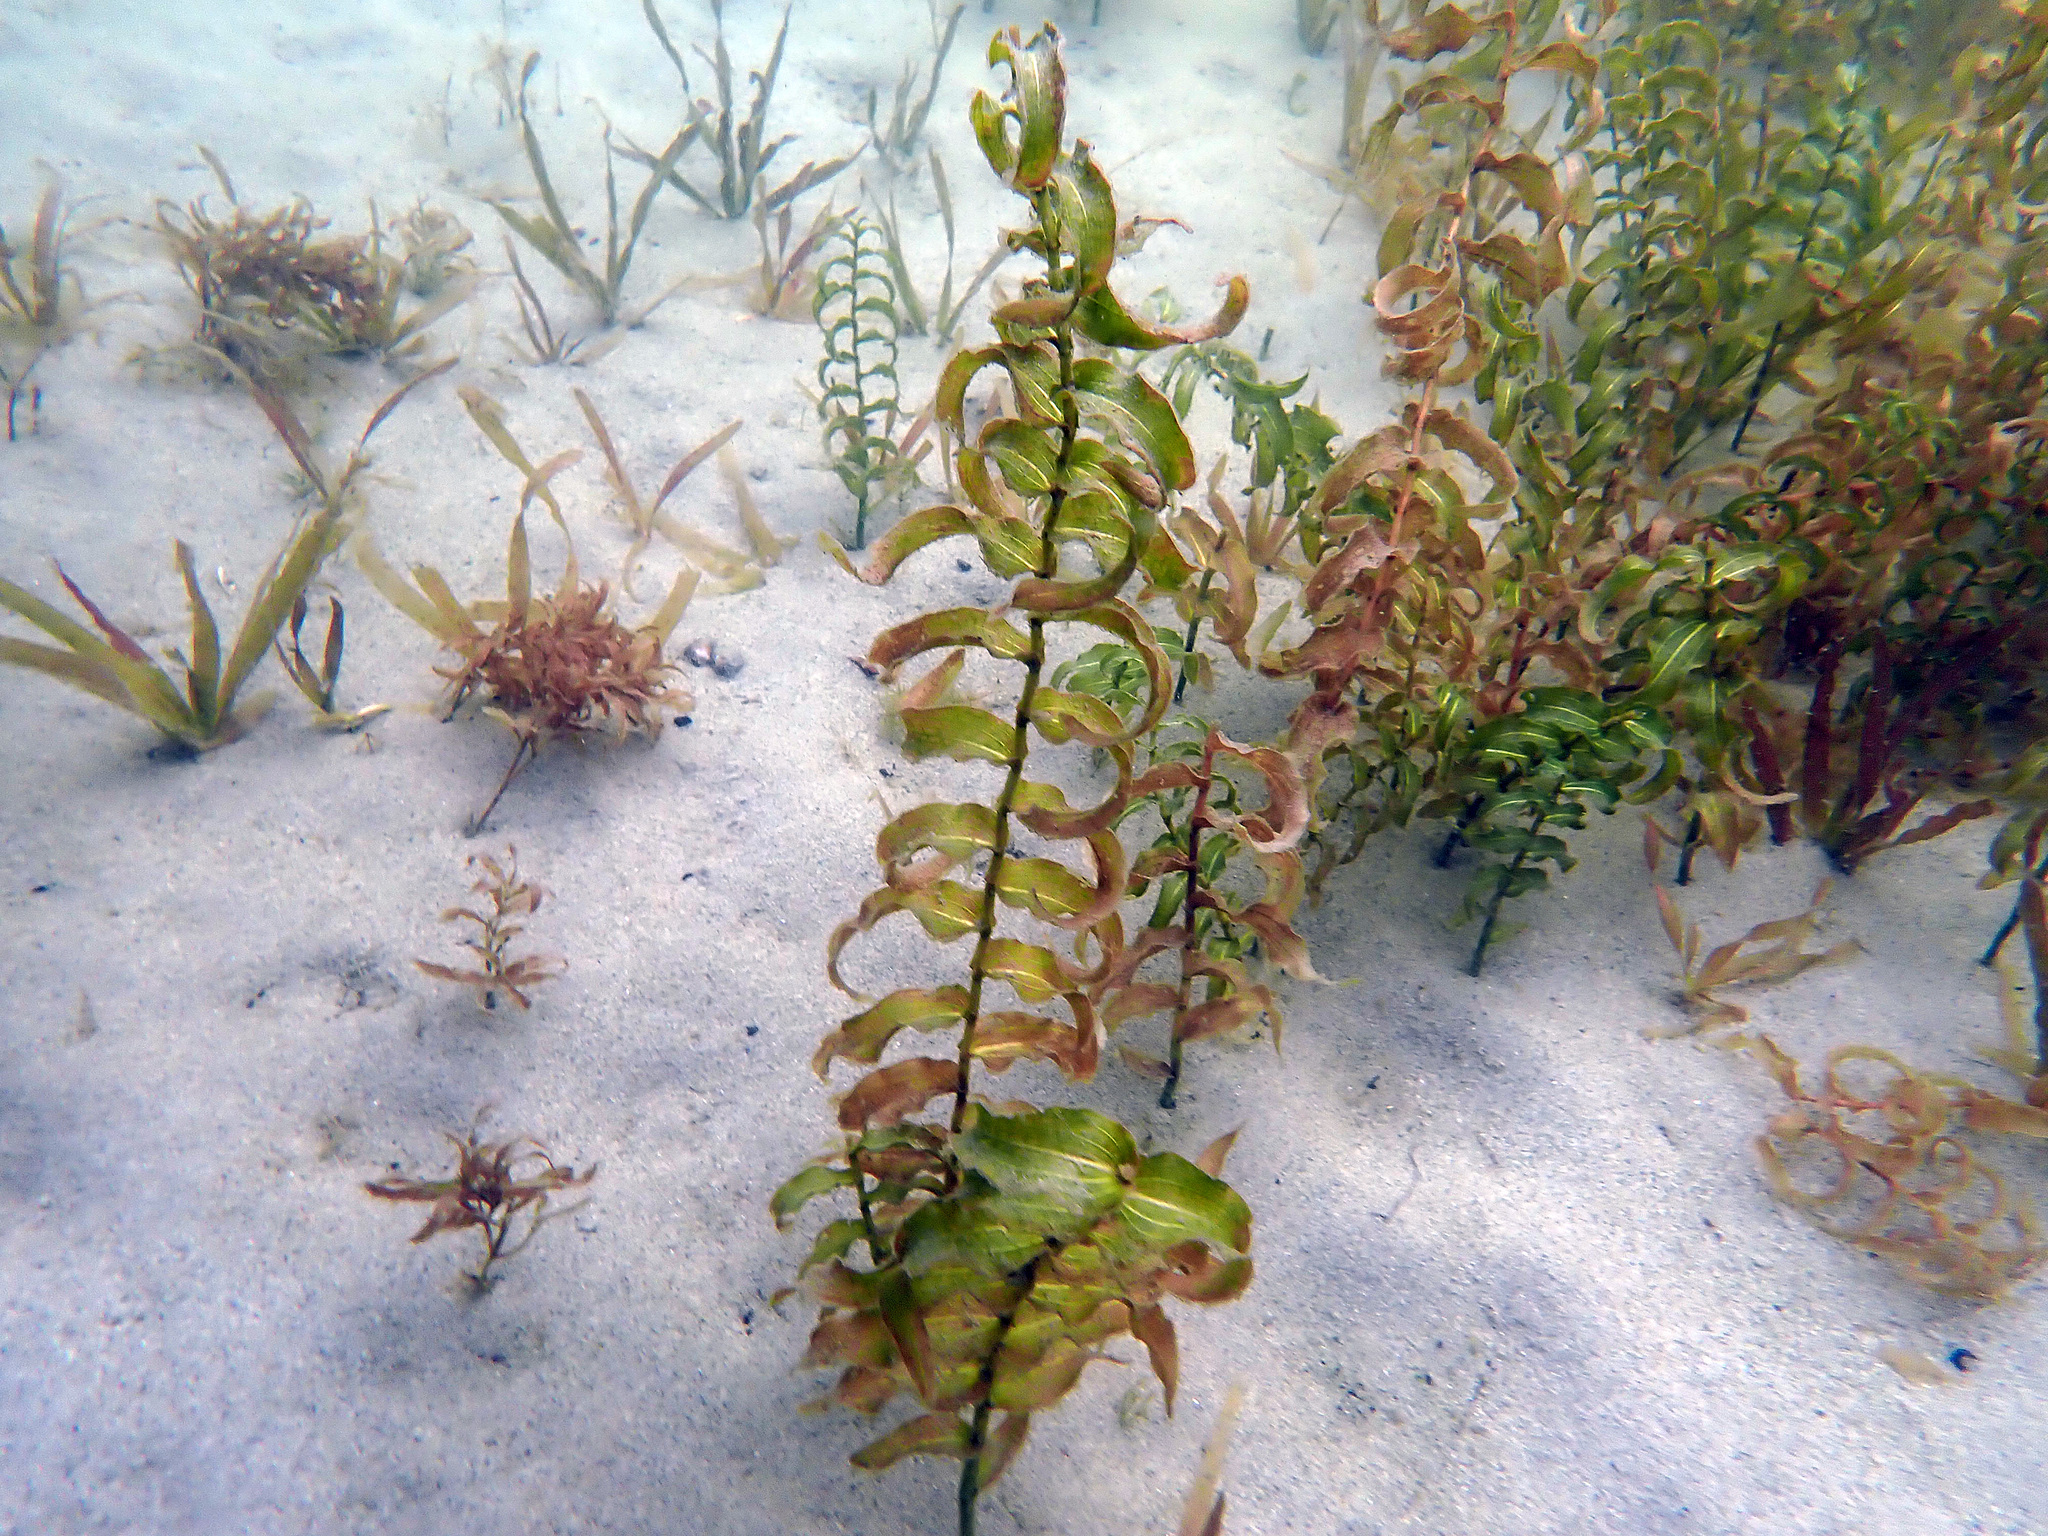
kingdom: Plantae
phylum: Tracheophyta
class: Liliopsida
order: Alismatales
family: Potamogetonaceae
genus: Potamogeton
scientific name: Potamogeton richardsonii
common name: Richardson's pondweed
